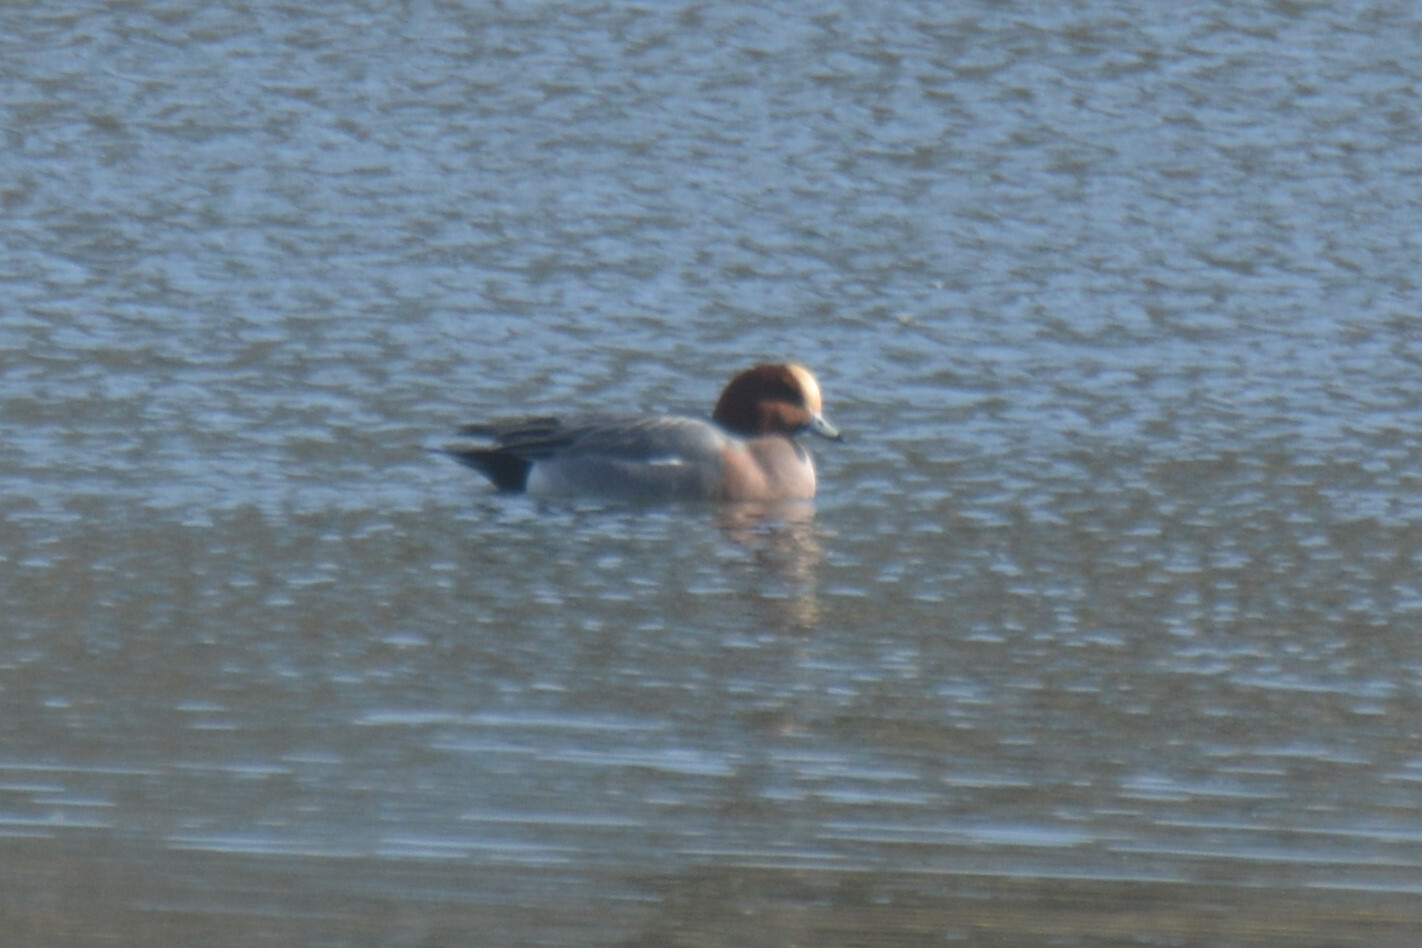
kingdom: Animalia
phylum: Chordata
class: Aves
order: Anseriformes
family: Anatidae
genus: Mareca
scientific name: Mareca penelope
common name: Eurasian wigeon
